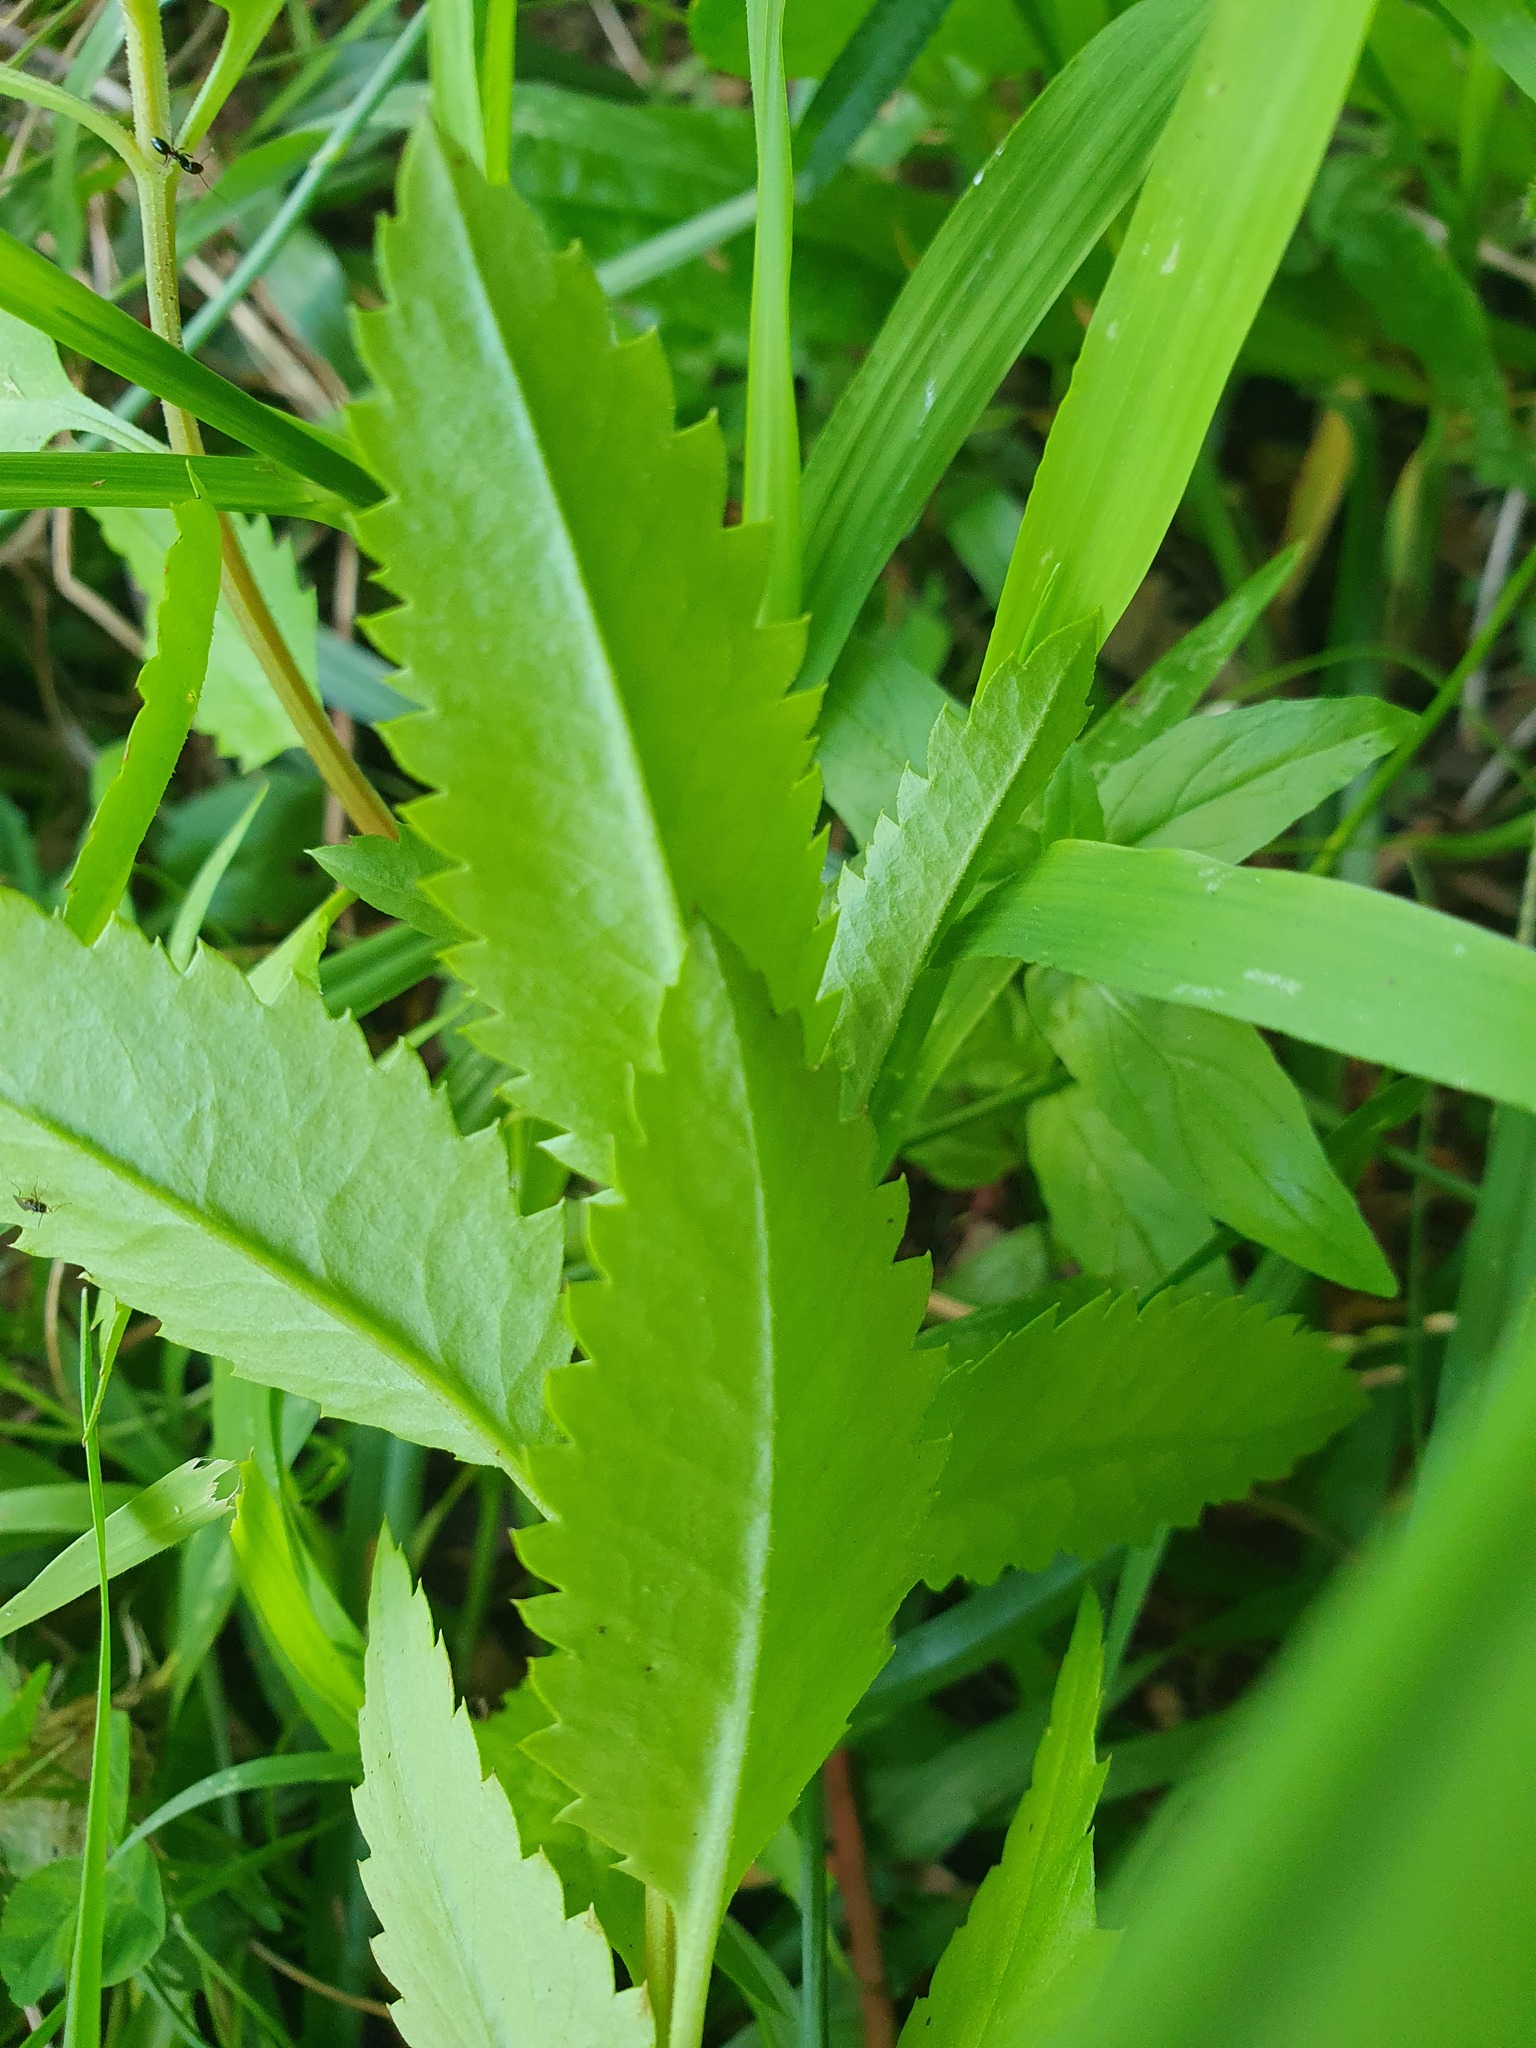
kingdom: Plantae
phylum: Tracheophyta
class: Magnoliopsida
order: Saxifragales
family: Haloragaceae
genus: Haloragis
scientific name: Haloragis erecta
